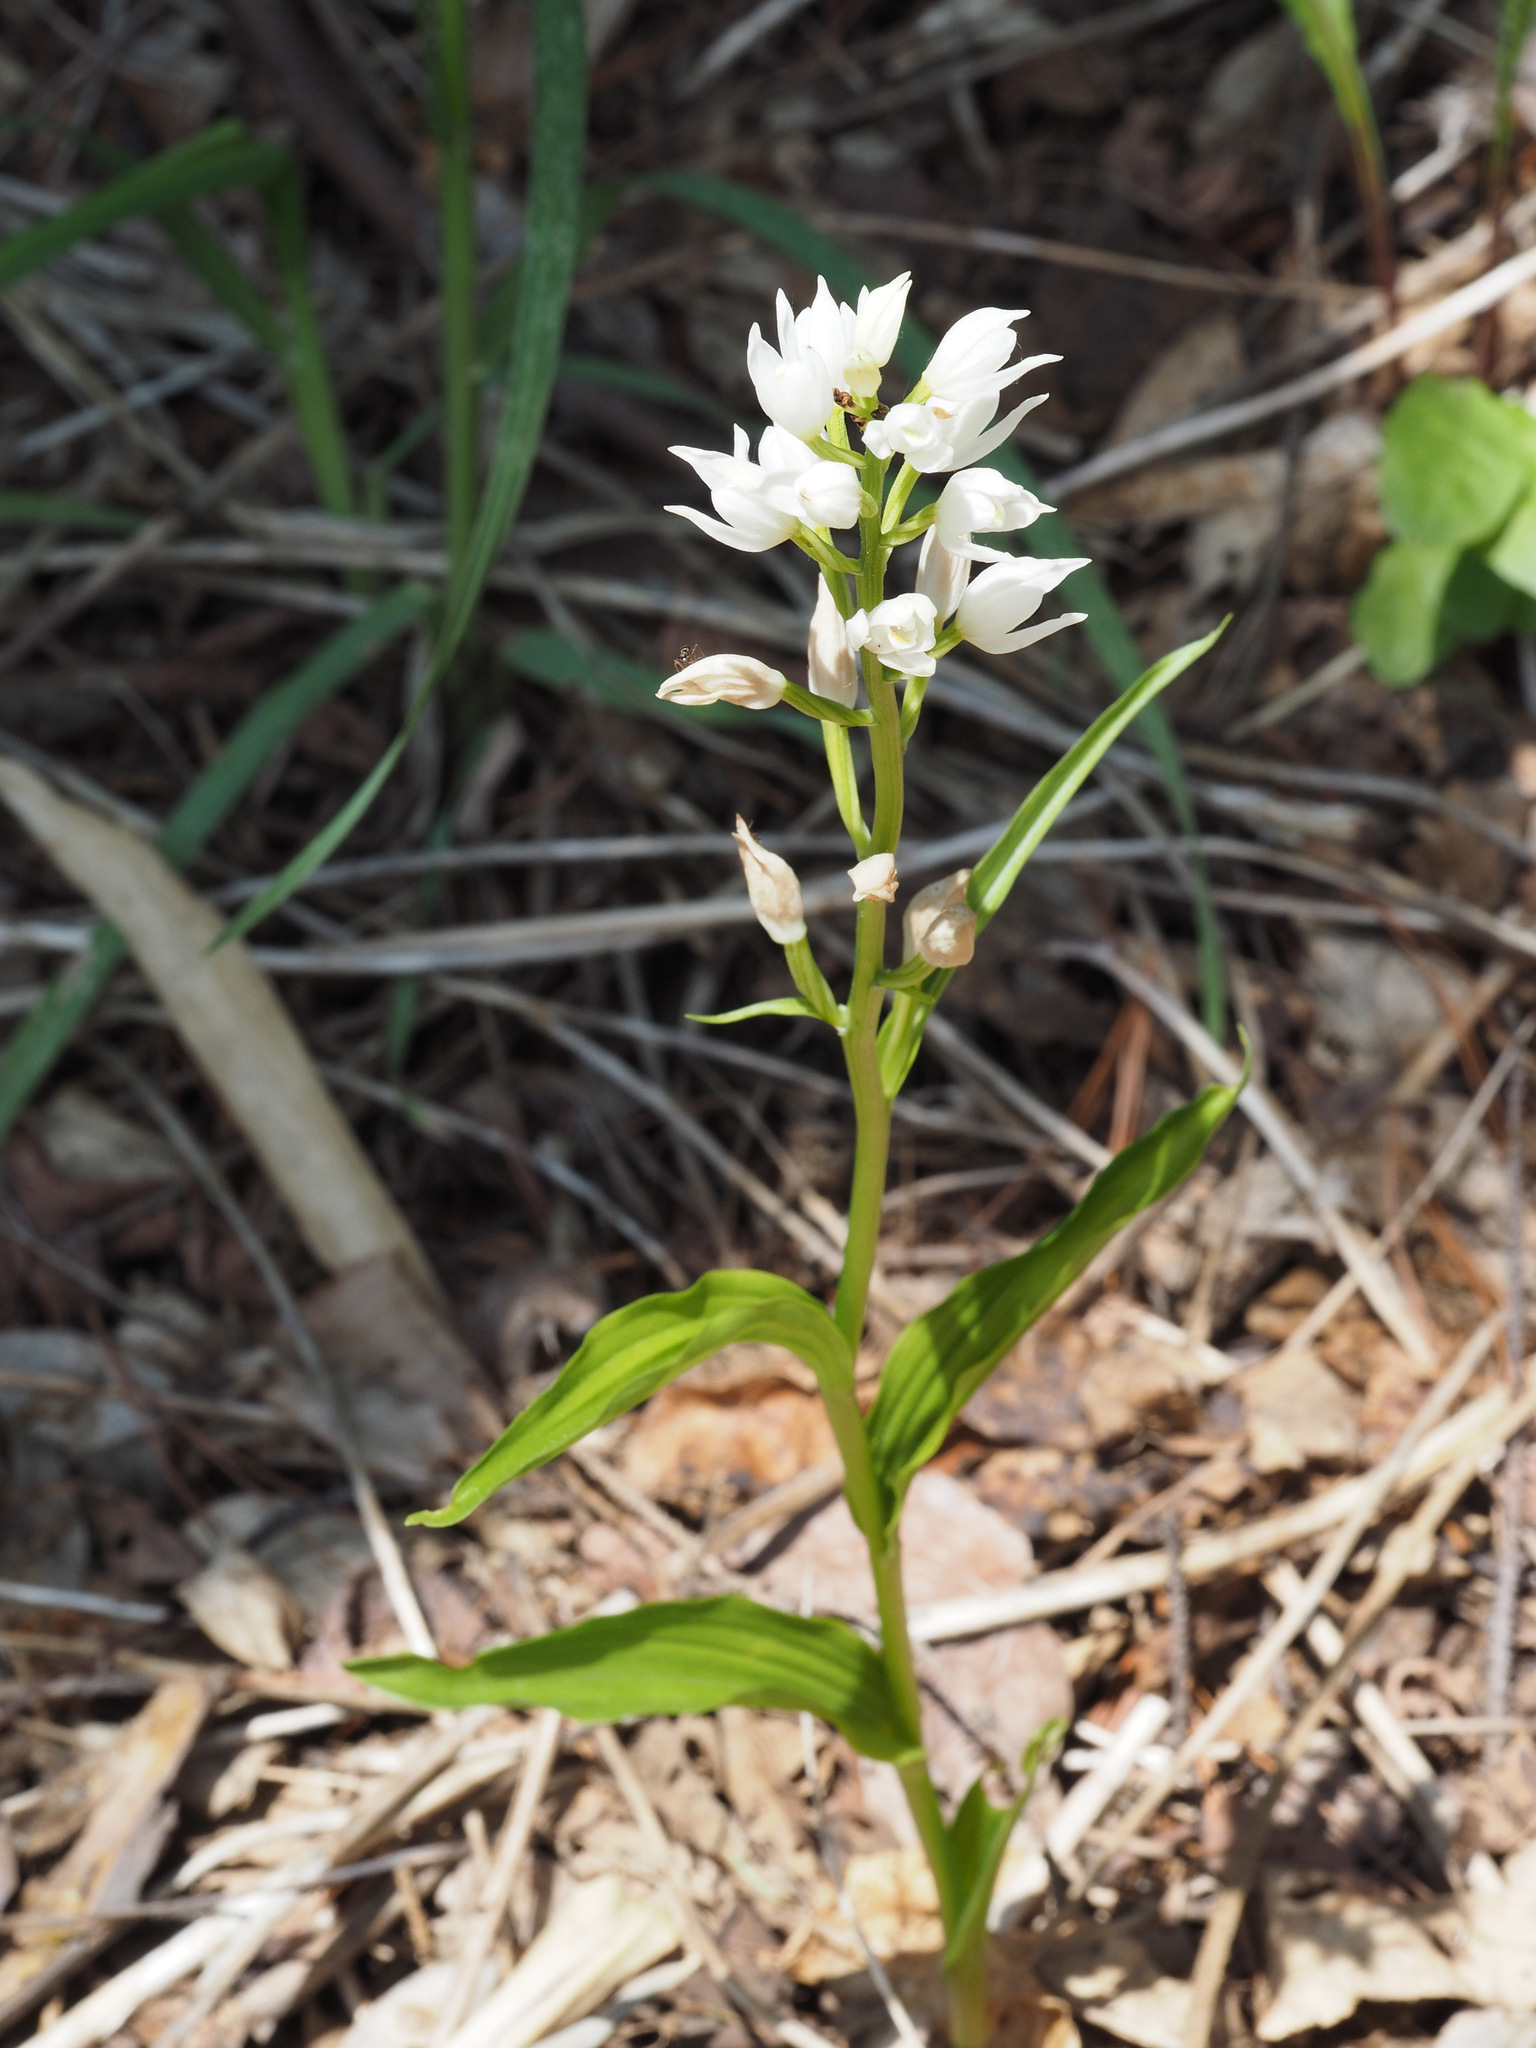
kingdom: Plantae
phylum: Tracheophyta
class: Liliopsida
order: Asparagales
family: Orchidaceae
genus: Cephalanthera
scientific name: Cephalanthera longifolia
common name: Narrow-leaved helleborine
